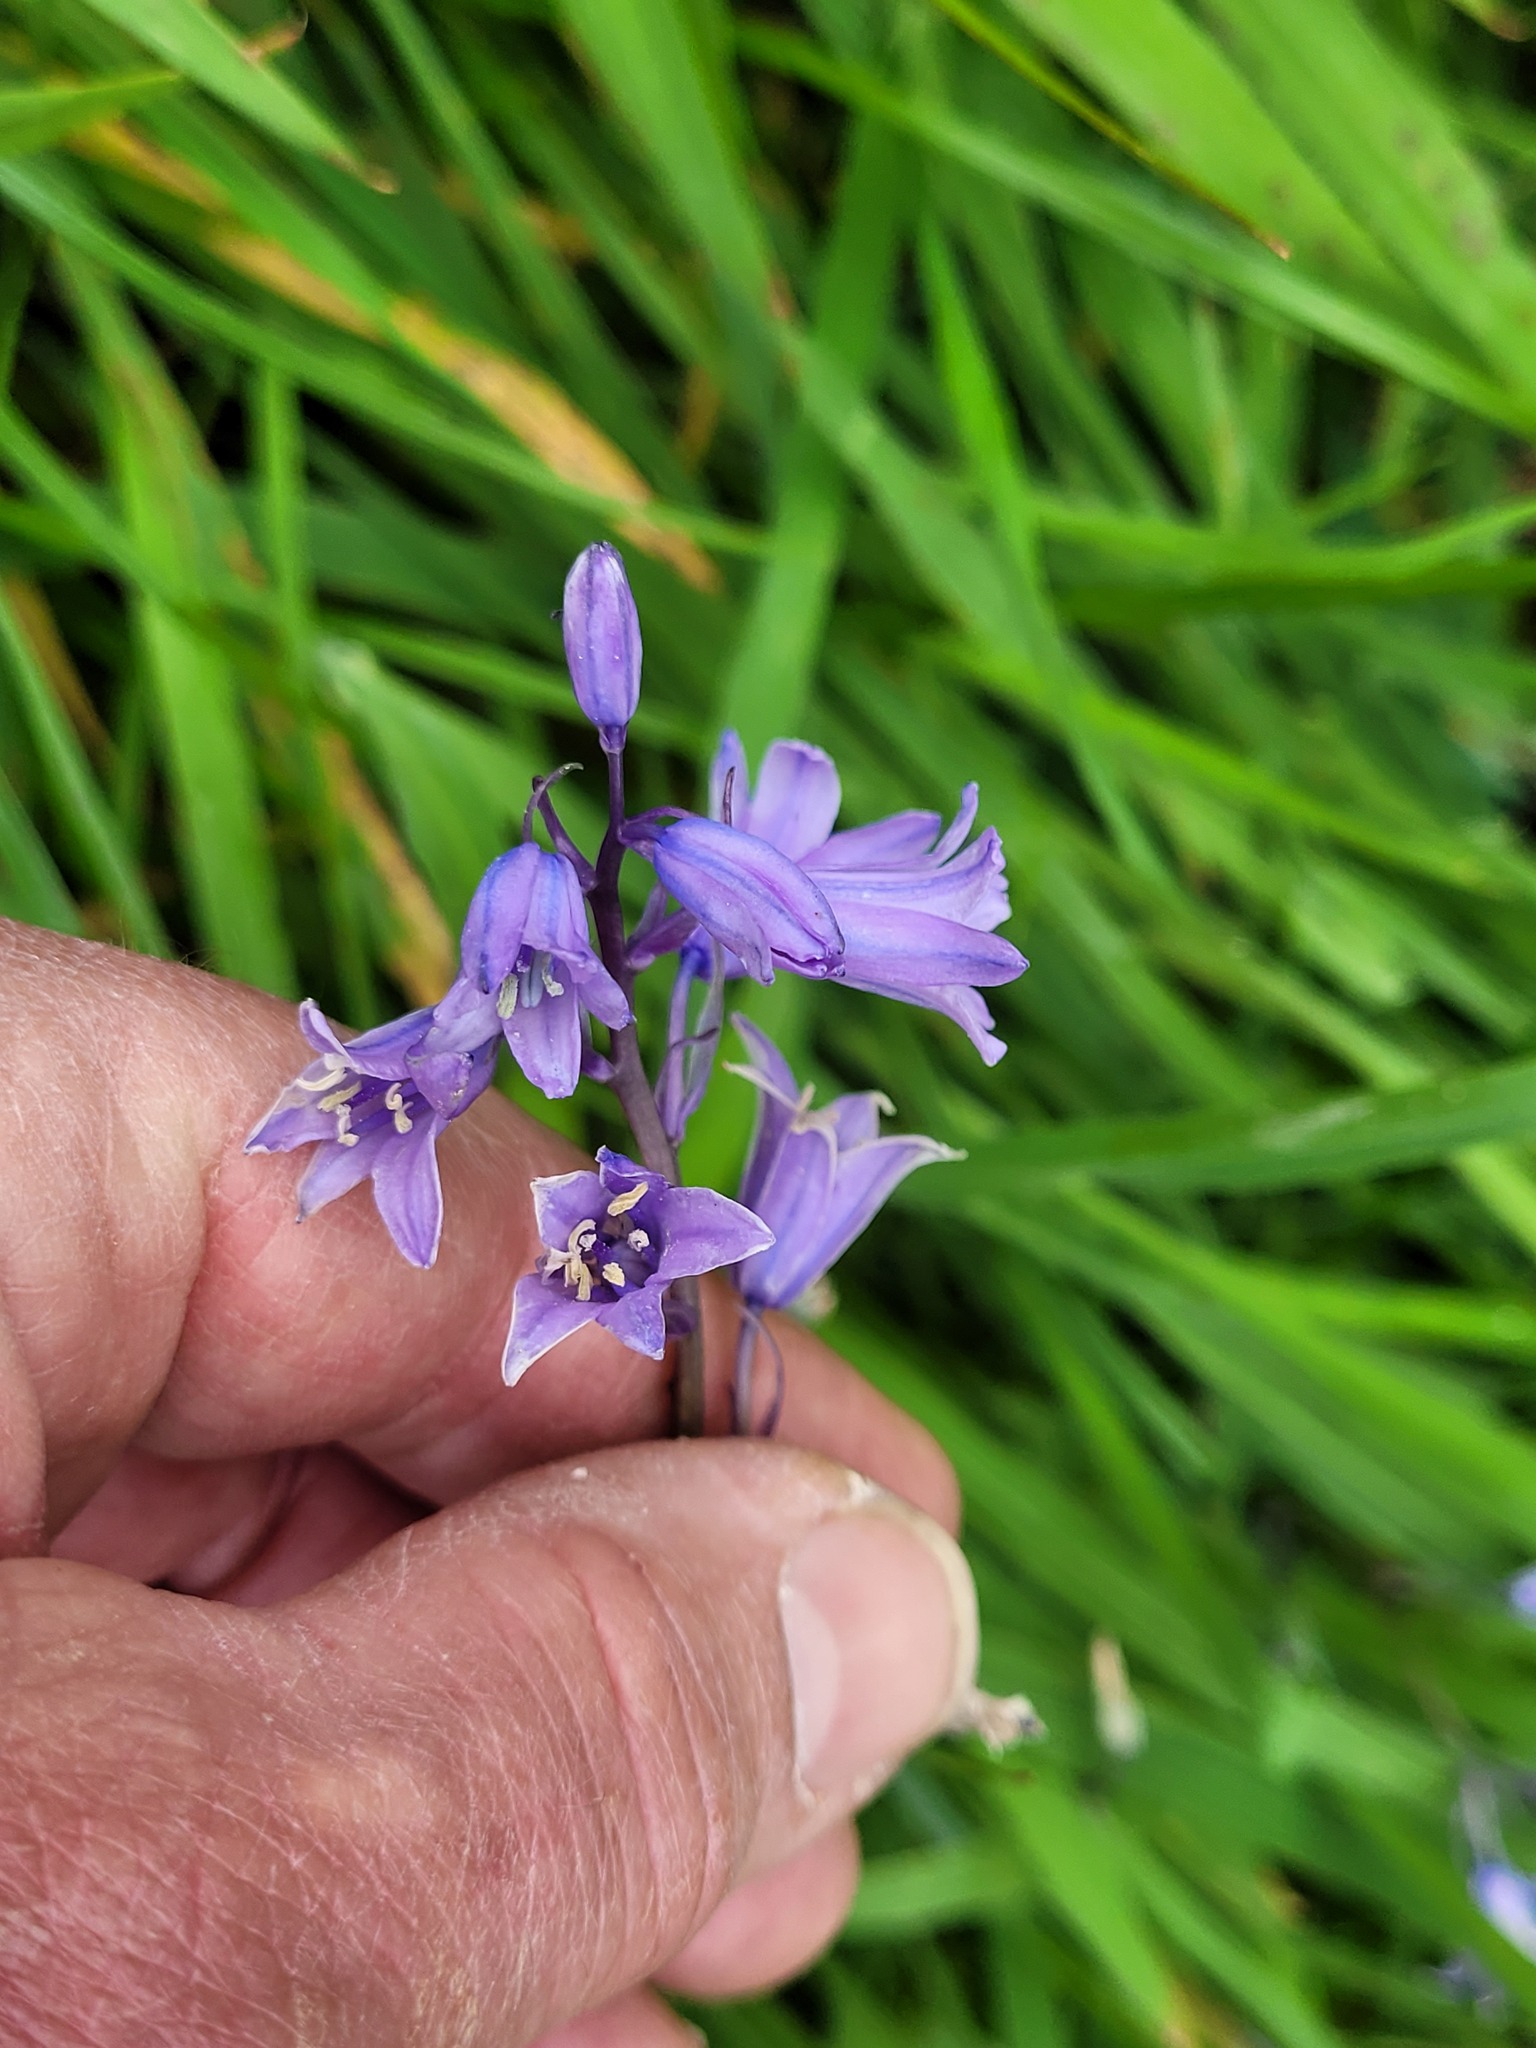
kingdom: Plantae
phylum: Tracheophyta
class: Liliopsida
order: Asparagales
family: Asparagaceae
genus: Hyacinthoides
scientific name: Hyacinthoides massartiana
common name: Hyacinthoides
